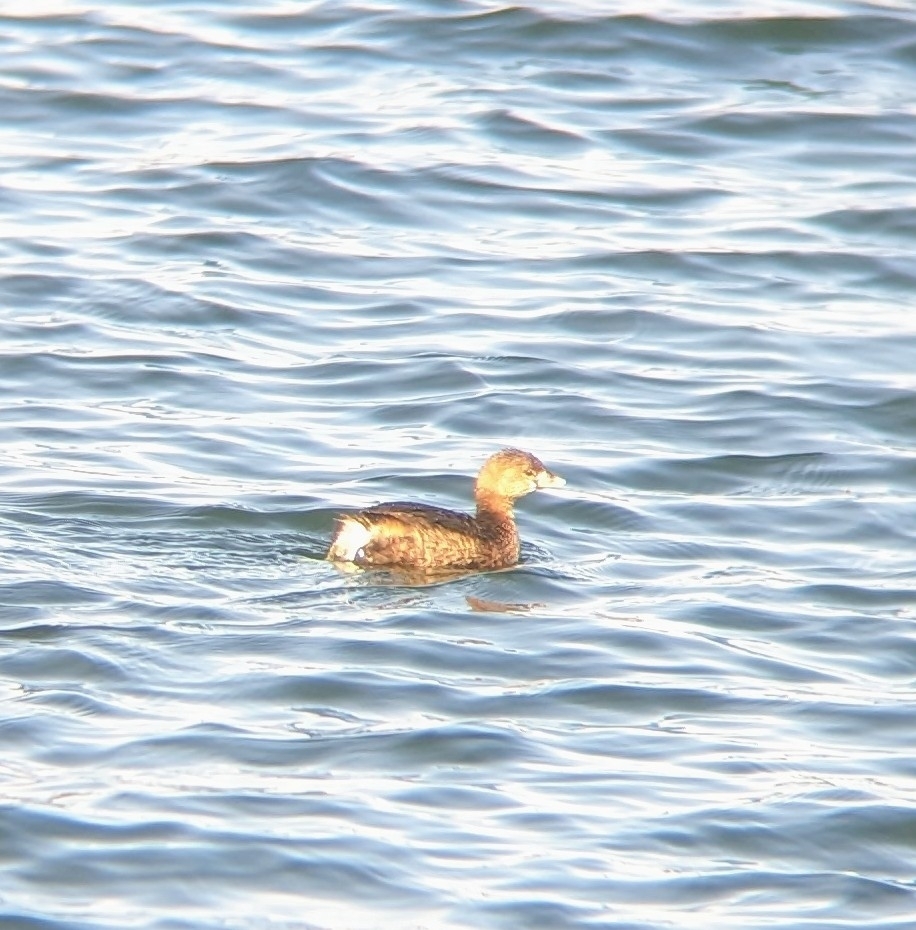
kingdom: Animalia
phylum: Chordata
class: Aves
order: Podicipediformes
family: Podicipedidae
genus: Podilymbus
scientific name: Podilymbus podiceps
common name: Pied-billed grebe
